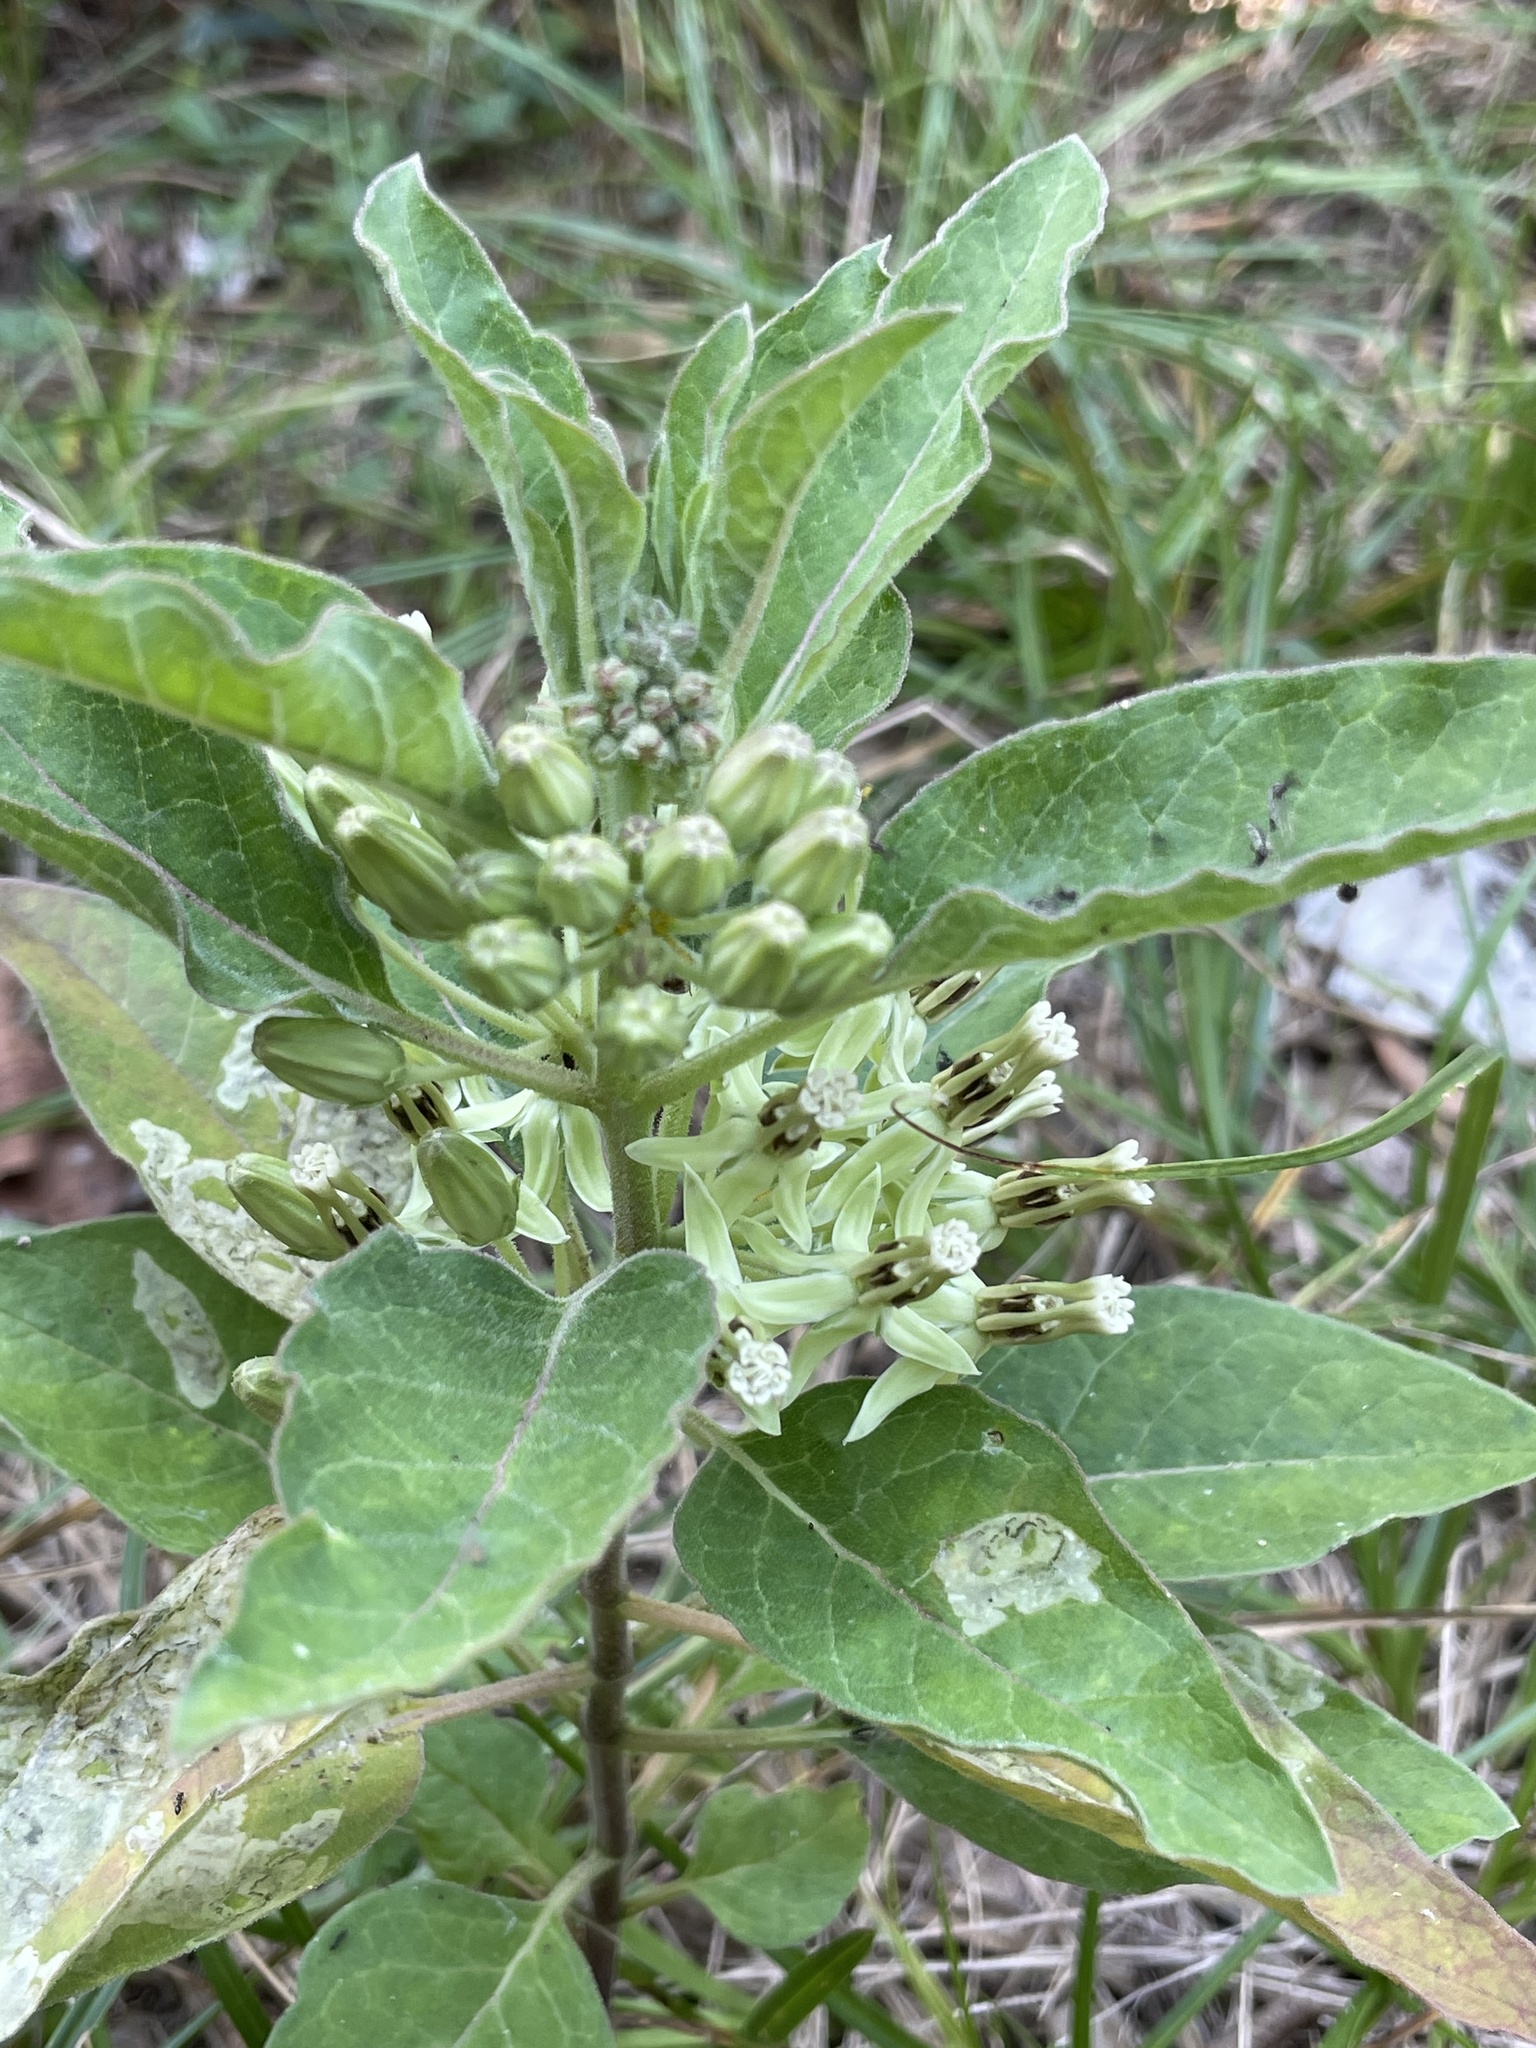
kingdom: Plantae
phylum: Tracheophyta
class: Magnoliopsida
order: Gentianales
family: Apocynaceae
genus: Asclepias
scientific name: Asclepias oenotheroides
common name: Zizotes milkweed
